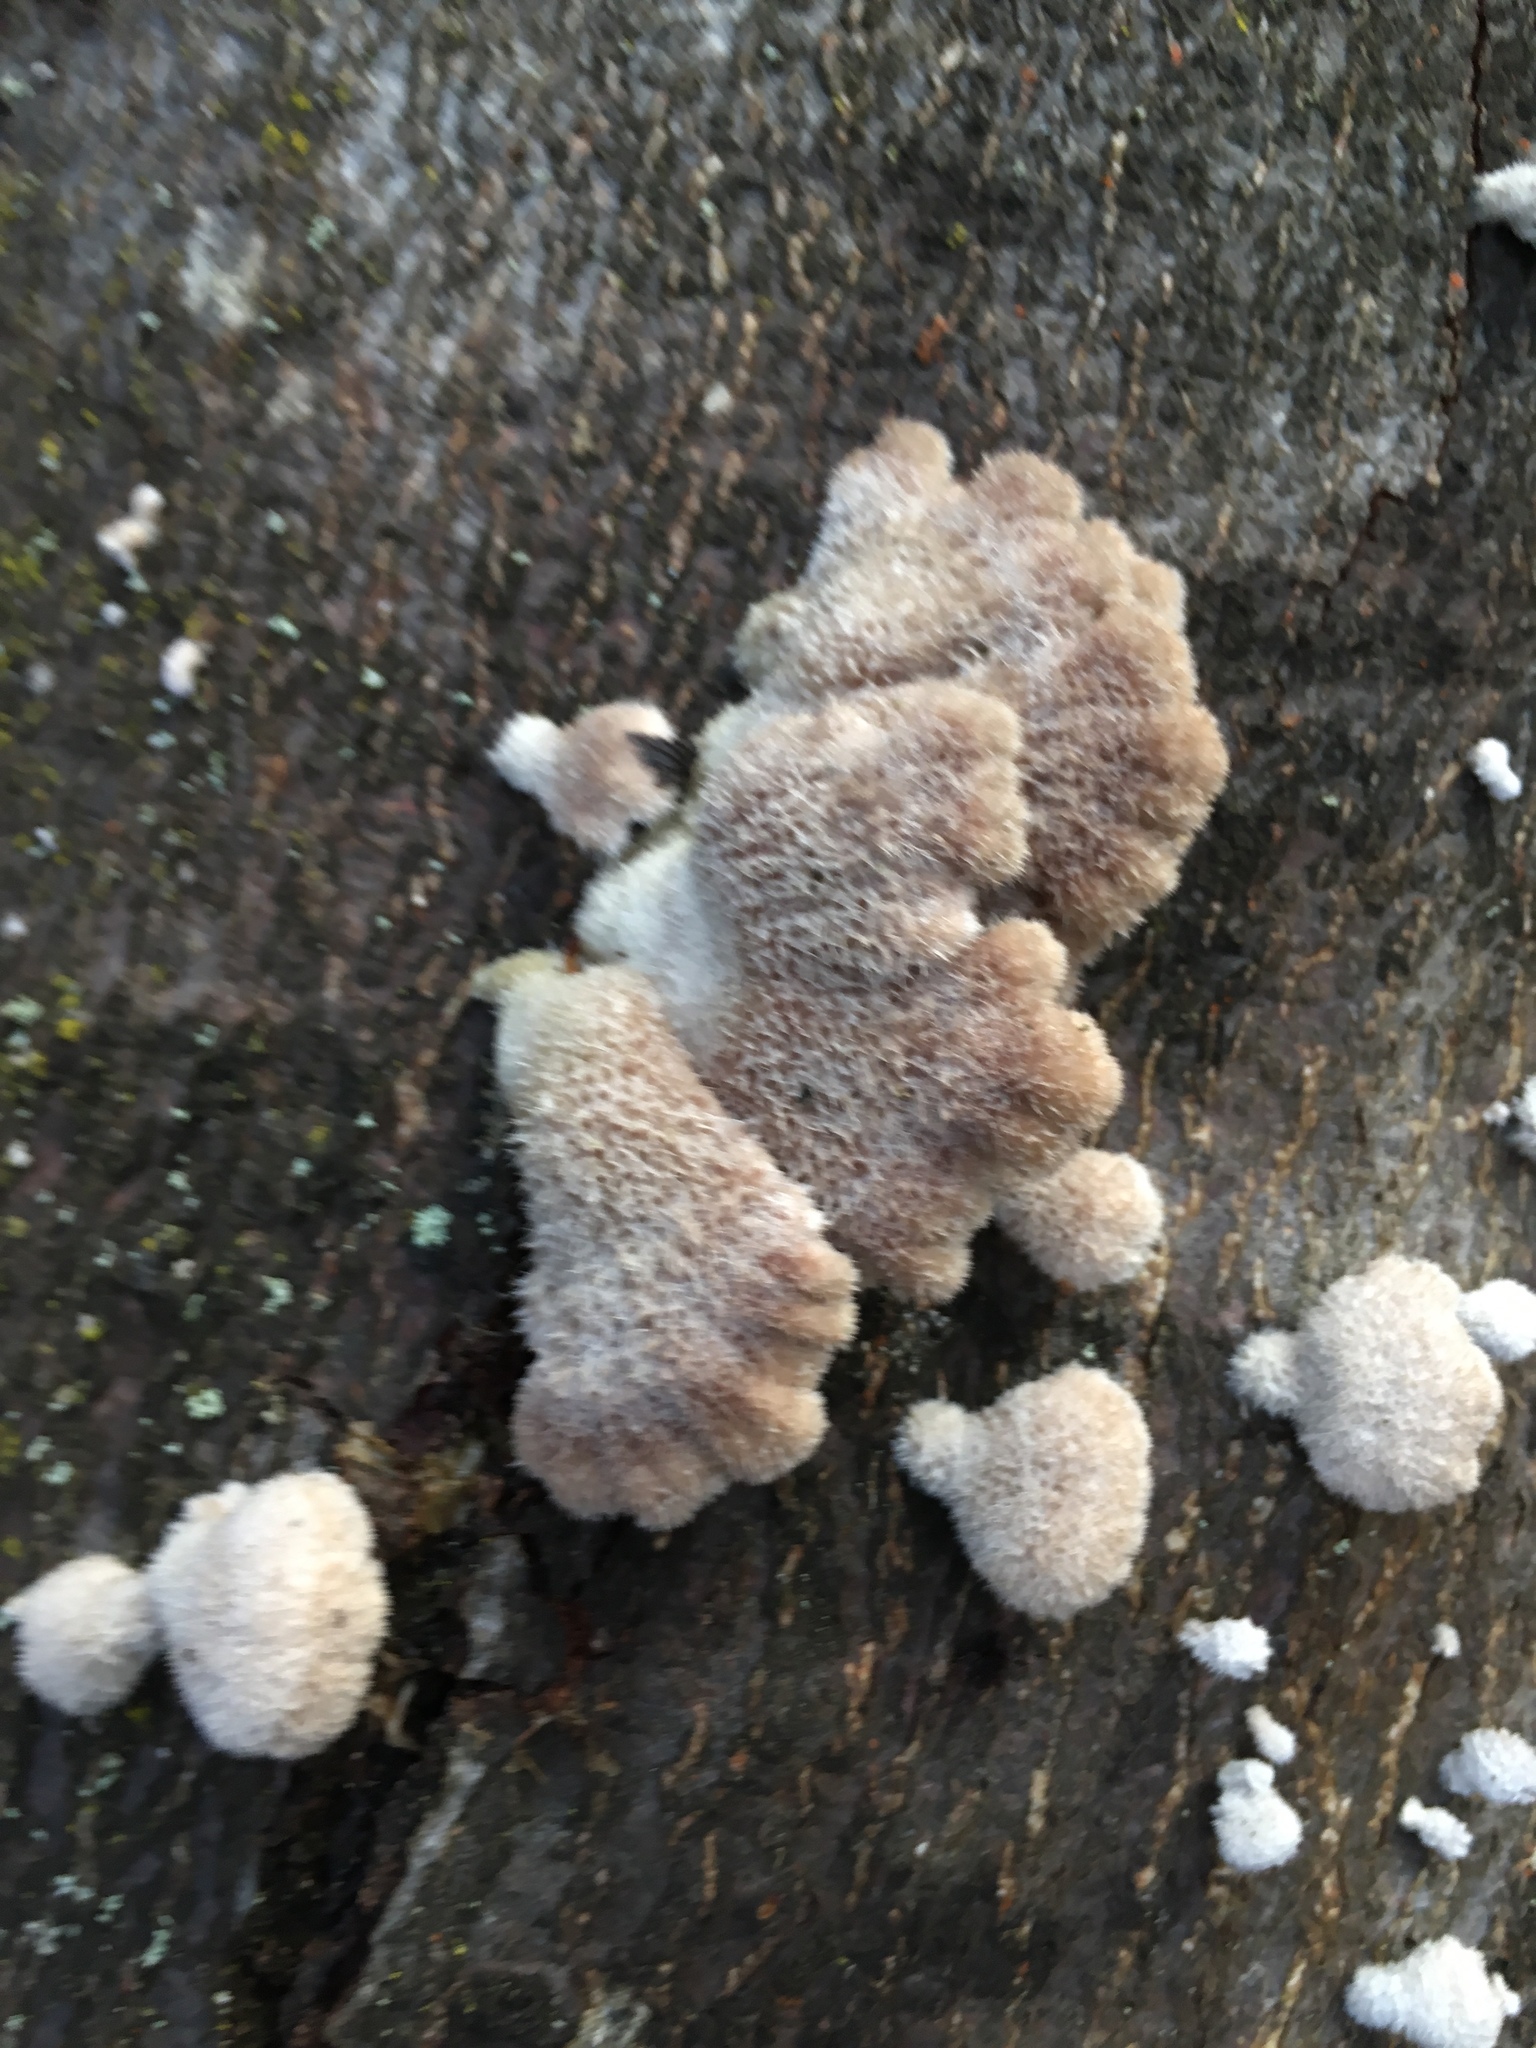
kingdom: Fungi
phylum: Basidiomycota
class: Agaricomycetes
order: Agaricales
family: Schizophyllaceae
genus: Schizophyllum
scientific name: Schizophyllum commune
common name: Common porecrust
